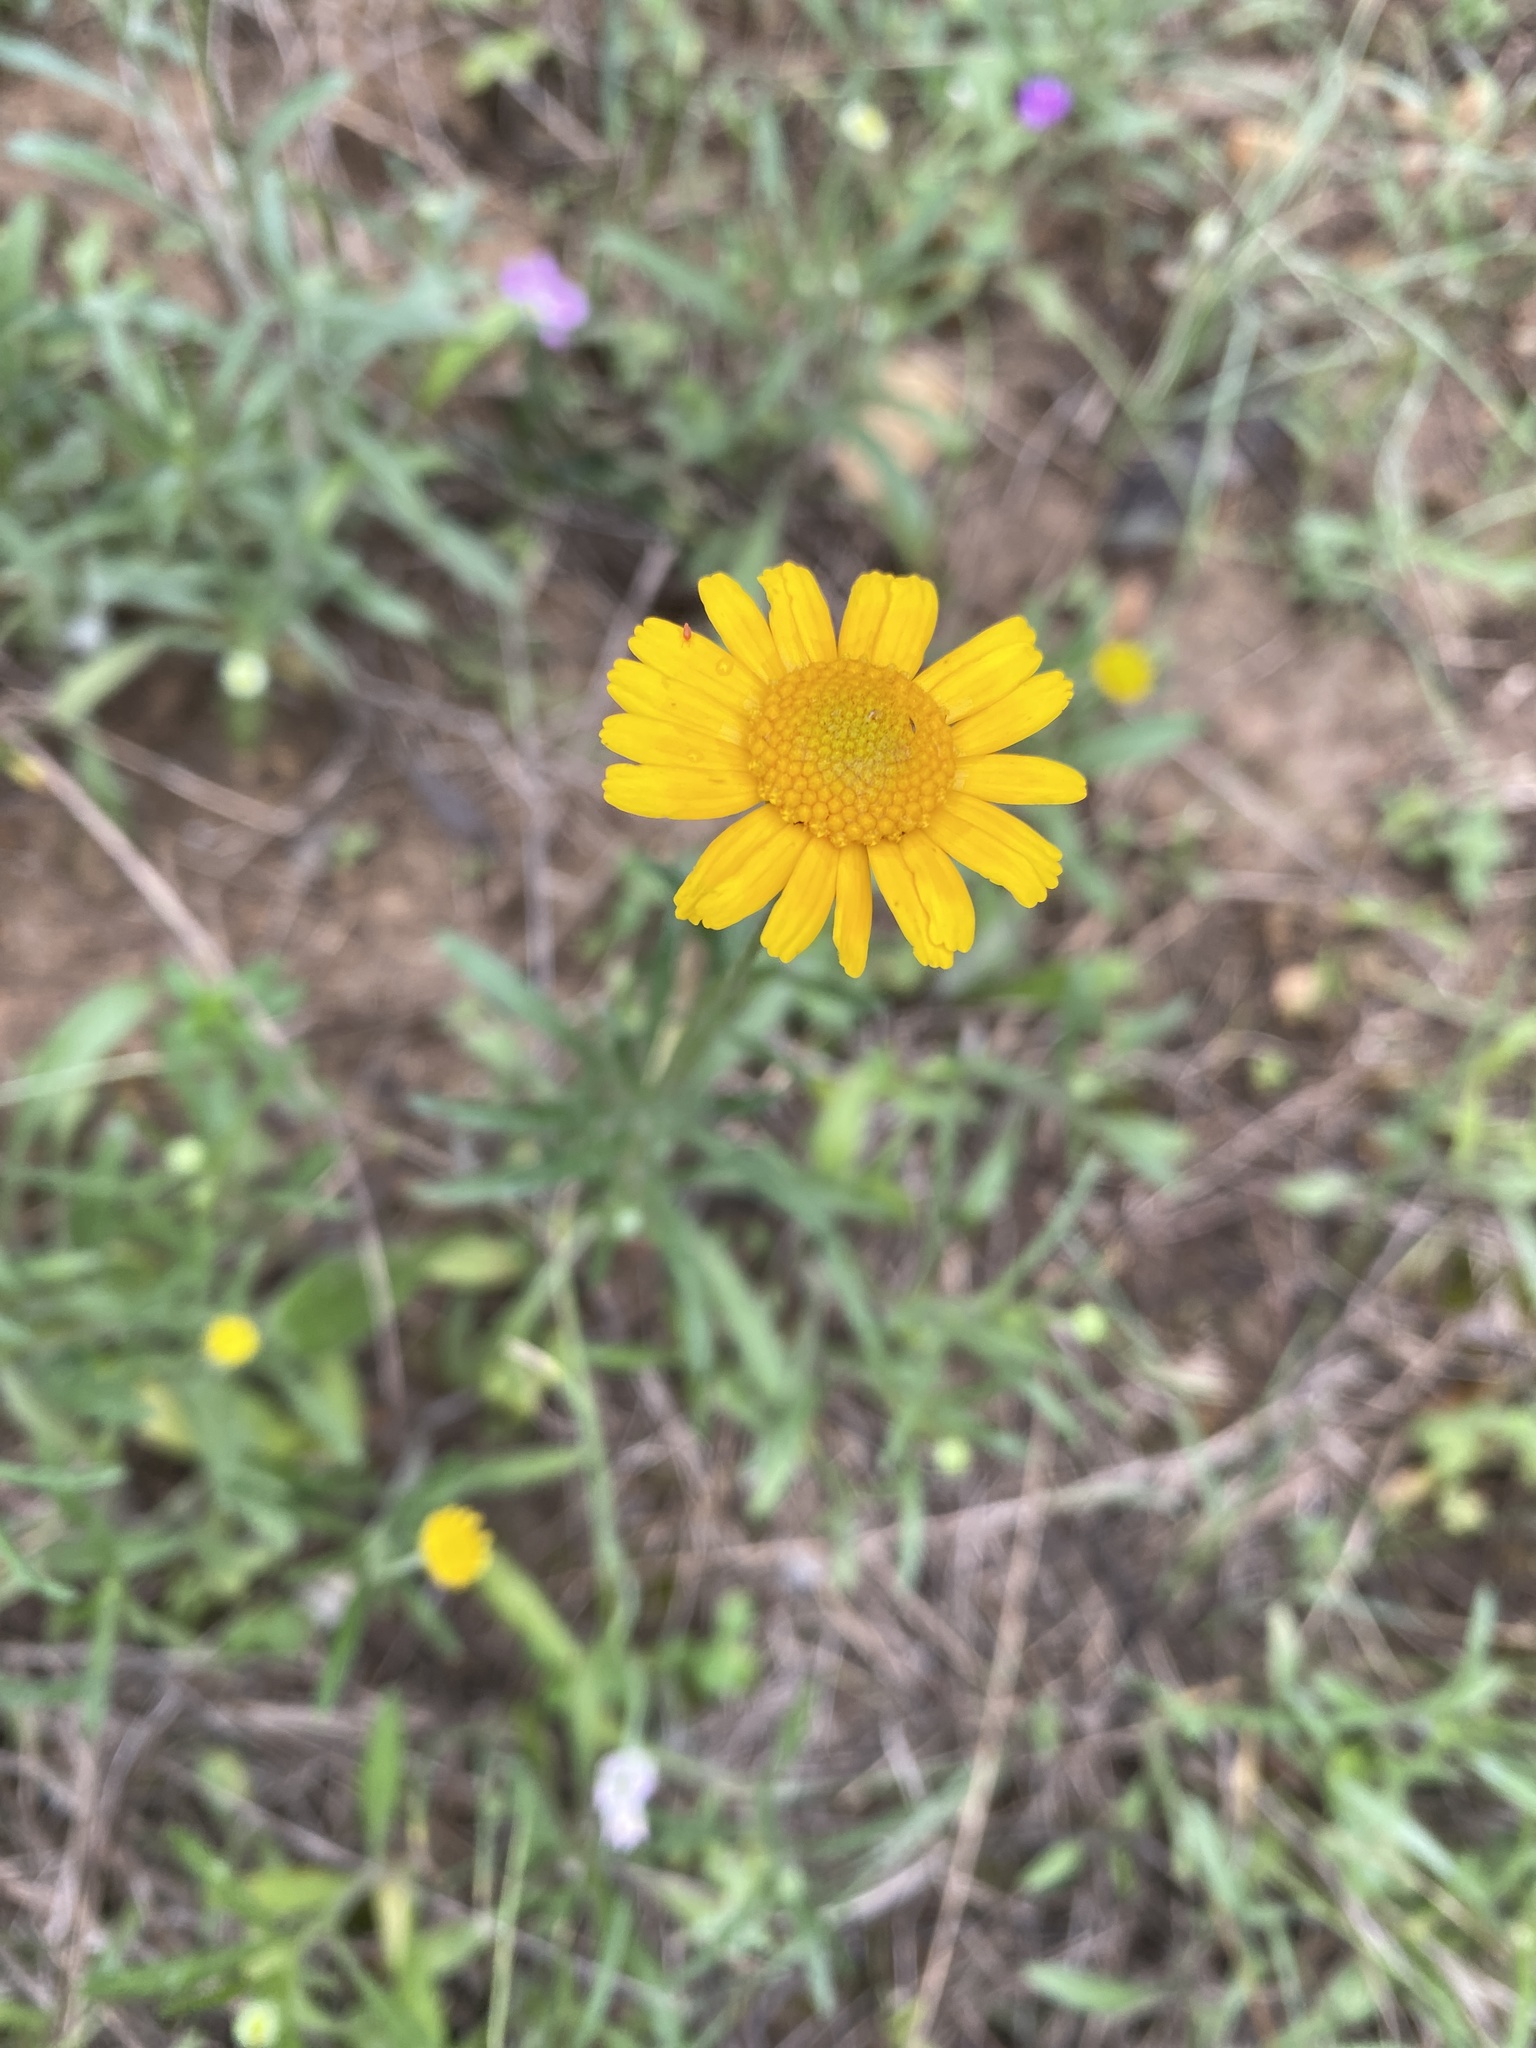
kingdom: Plantae
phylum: Tracheophyta
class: Magnoliopsida
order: Asterales
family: Asteraceae
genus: Tetraneuris
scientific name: Tetraneuris linearifolia
